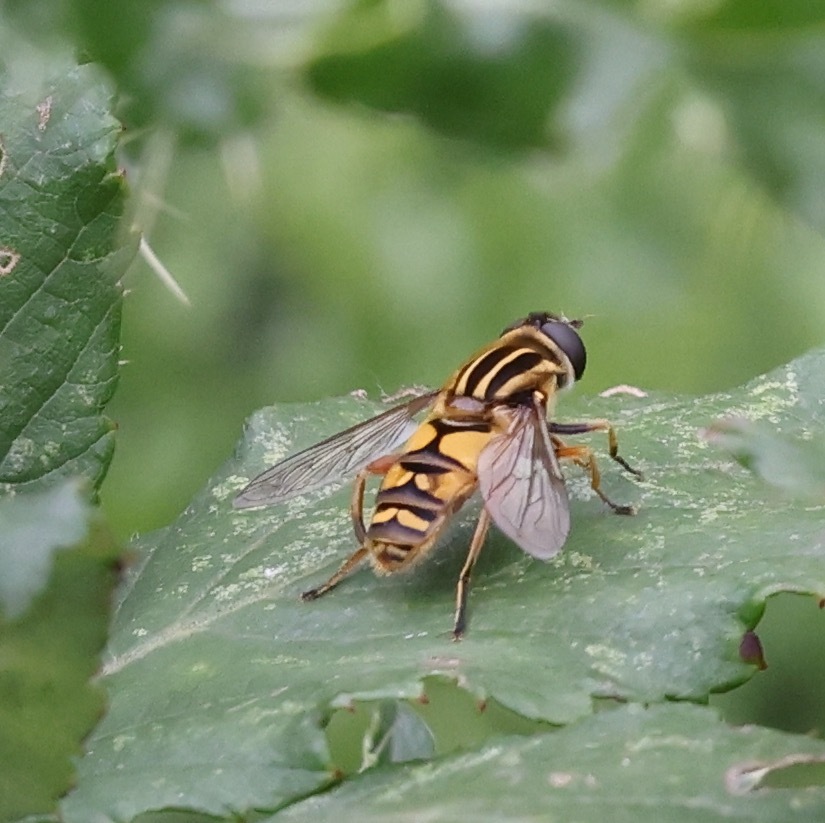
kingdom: Animalia
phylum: Arthropoda
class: Insecta
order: Diptera
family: Syrphidae
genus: Helophilus
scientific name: Helophilus pendulus
